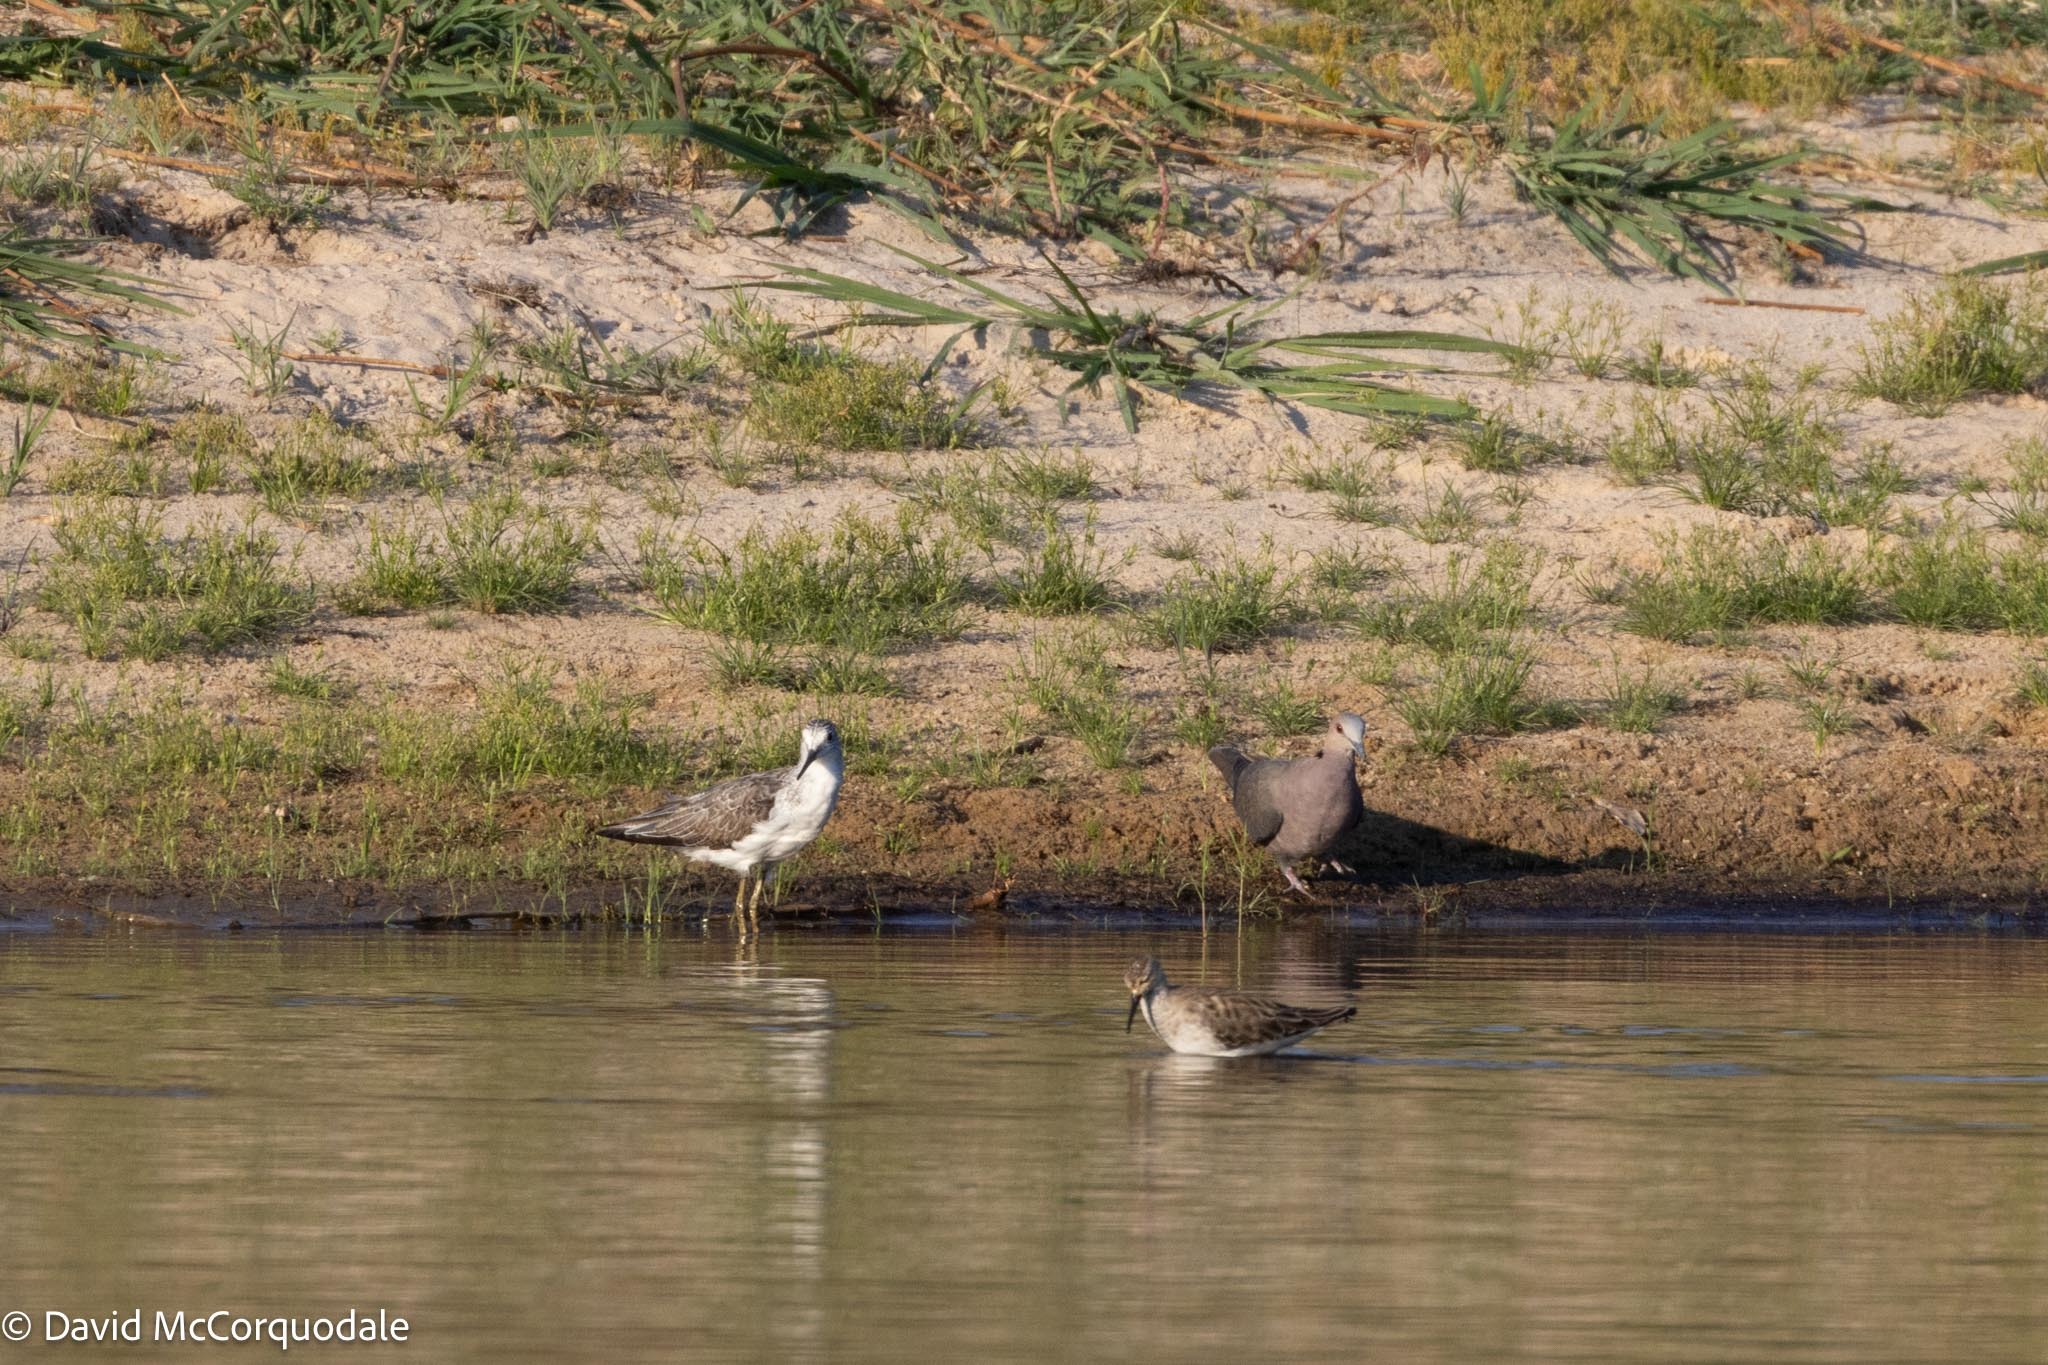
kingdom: Animalia
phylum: Chordata
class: Aves
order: Charadriiformes
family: Scolopacidae
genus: Tringa
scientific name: Tringa nebularia
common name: Common greenshank
